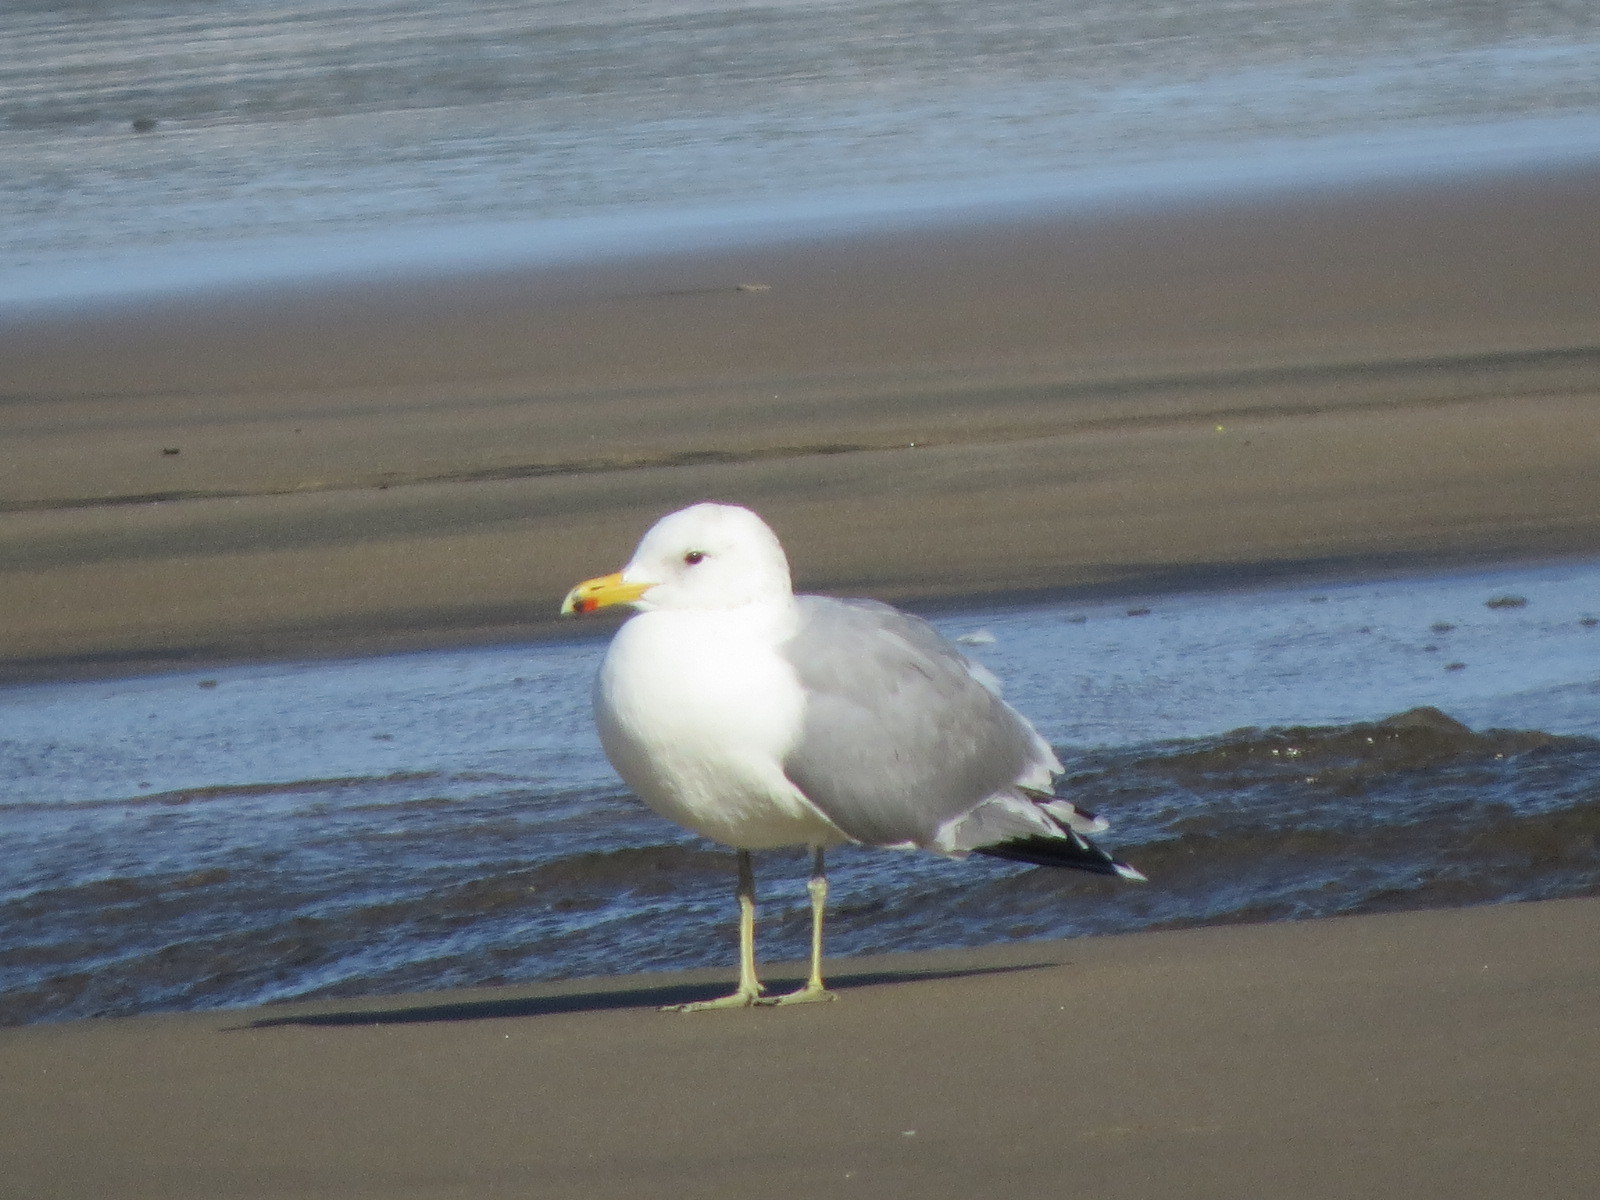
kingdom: Animalia
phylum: Chordata
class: Aves
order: Charadriiformes
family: Laridae
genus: Larus
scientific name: Larus californicus
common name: California gull
